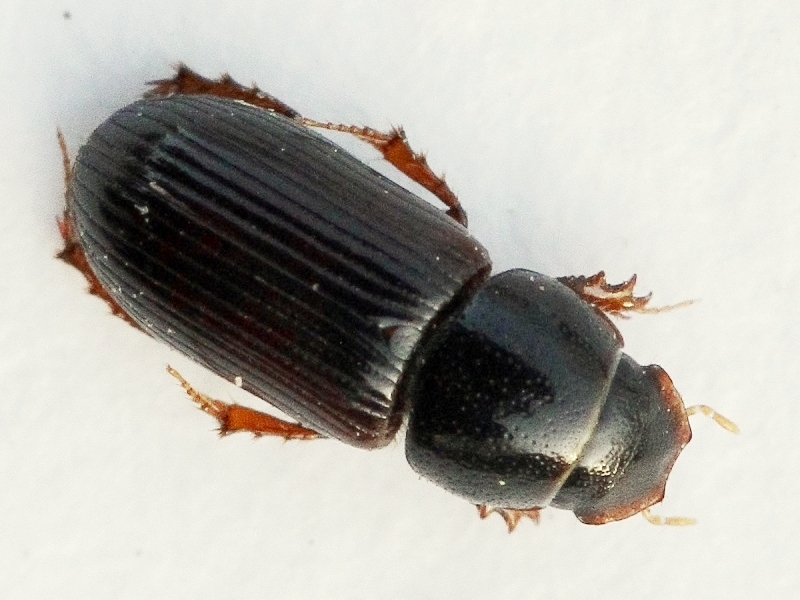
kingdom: Animalia
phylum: Arthropoda
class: Insecta
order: Coleoptera
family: Scarabaeidae
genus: Mendidaphodius
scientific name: Mendidaphodius linearis
